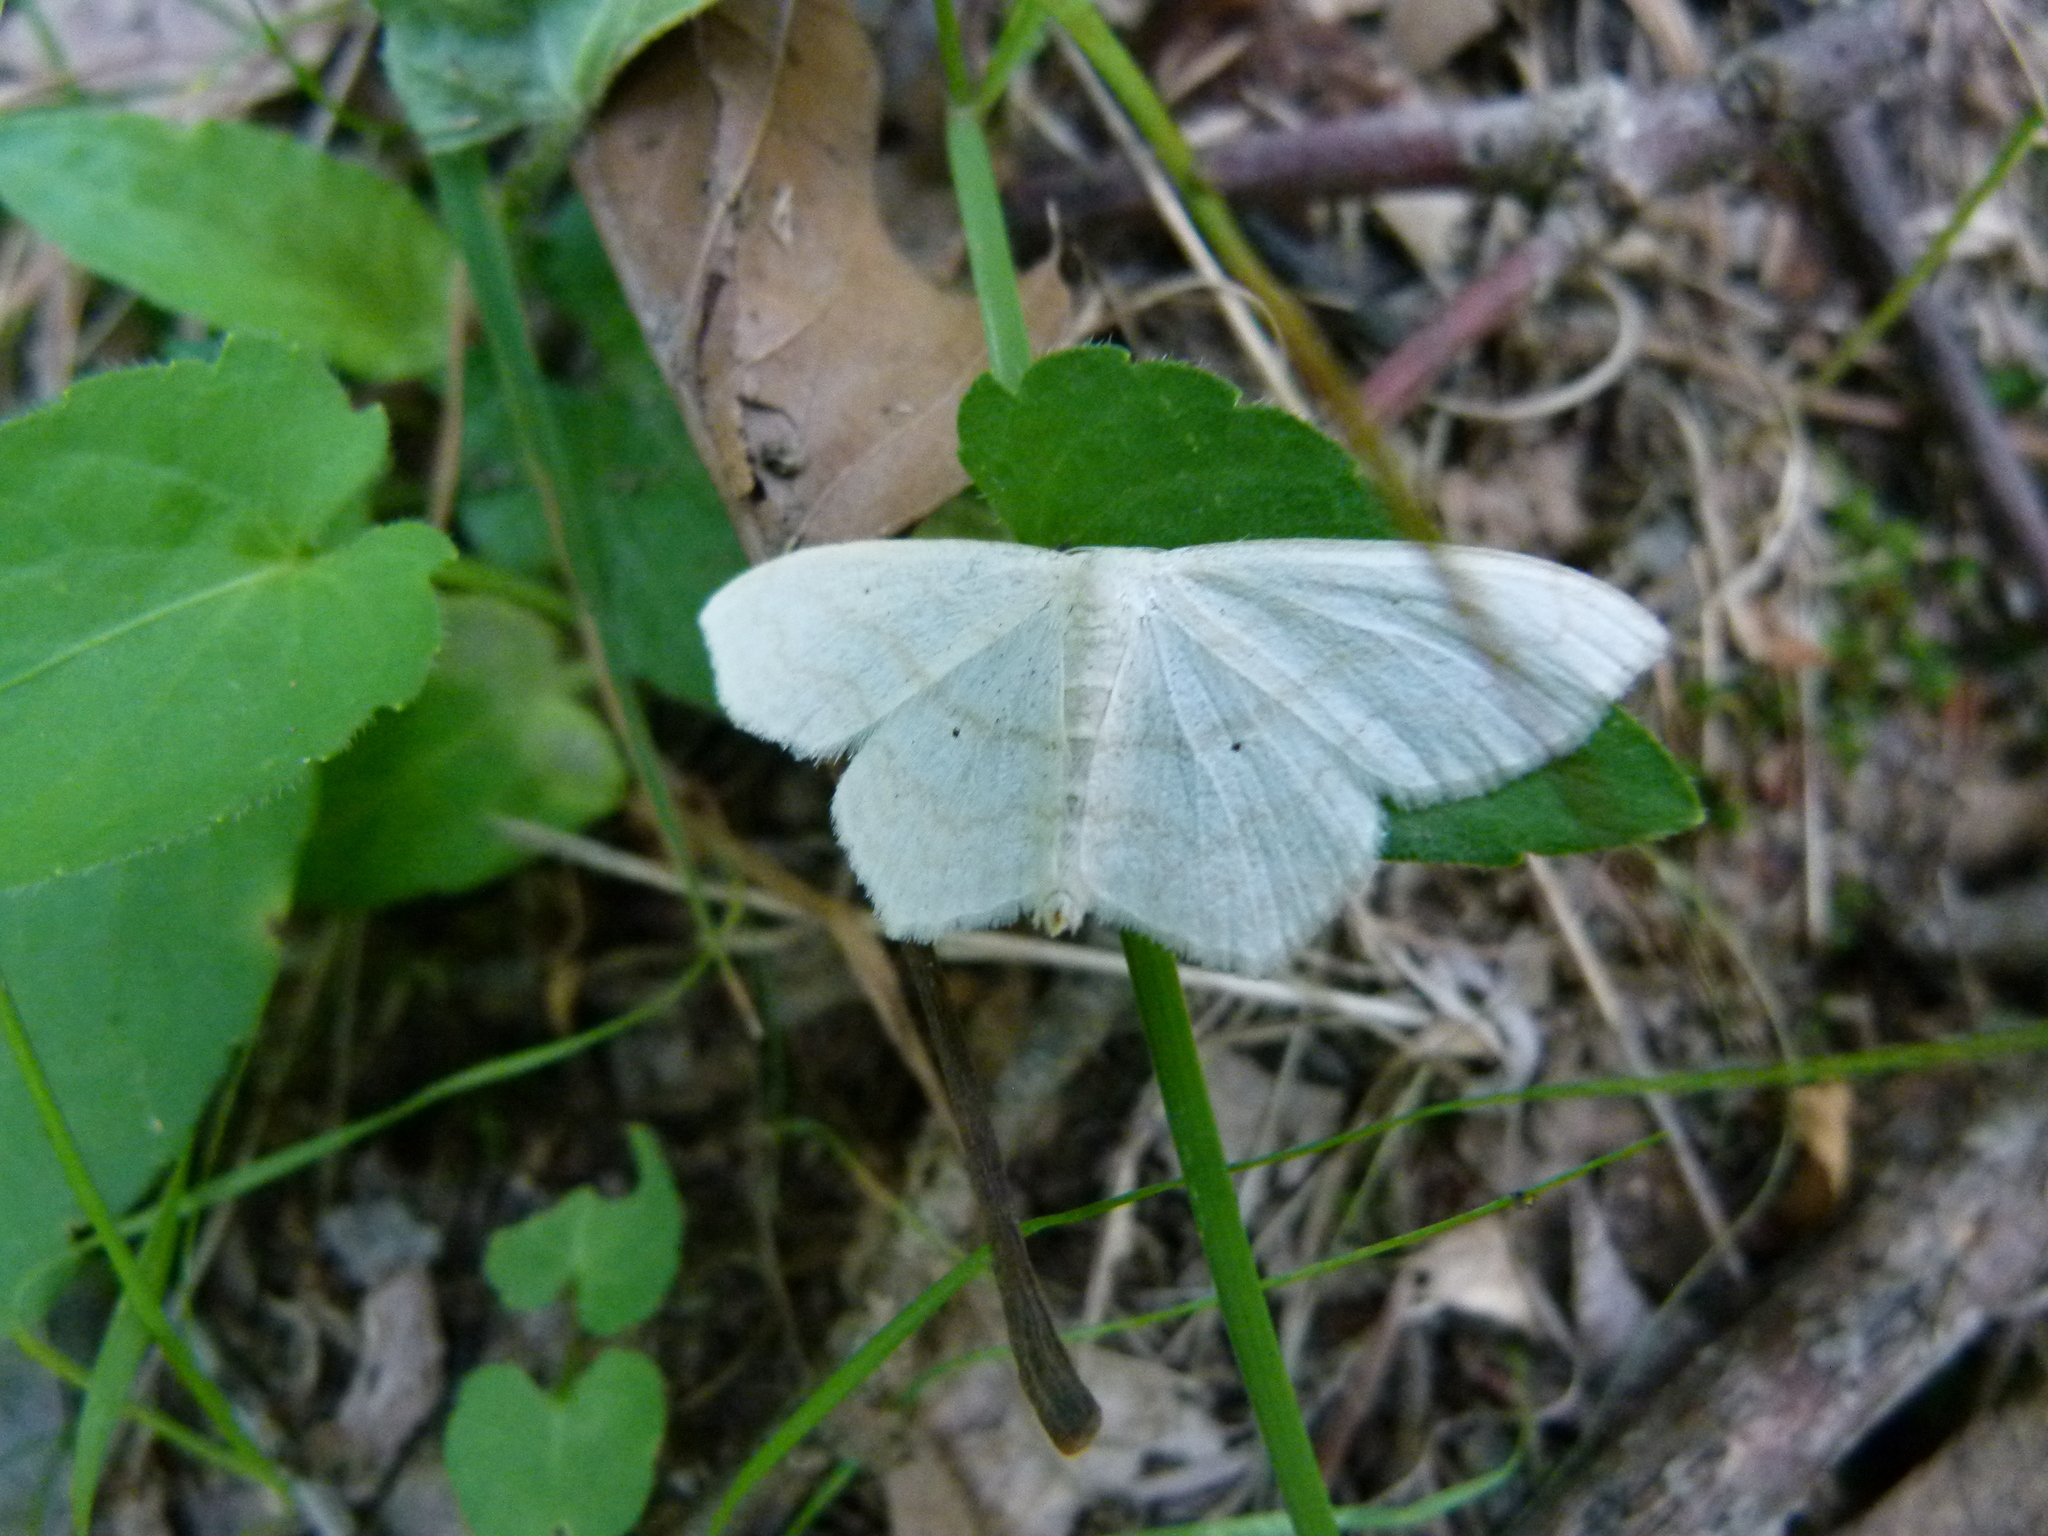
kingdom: Animalia
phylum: Arthropoda
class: Insecta
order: Lepidoptera
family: Geometridae
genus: Scopula
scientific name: Scopula limboundata
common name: Large lace border
